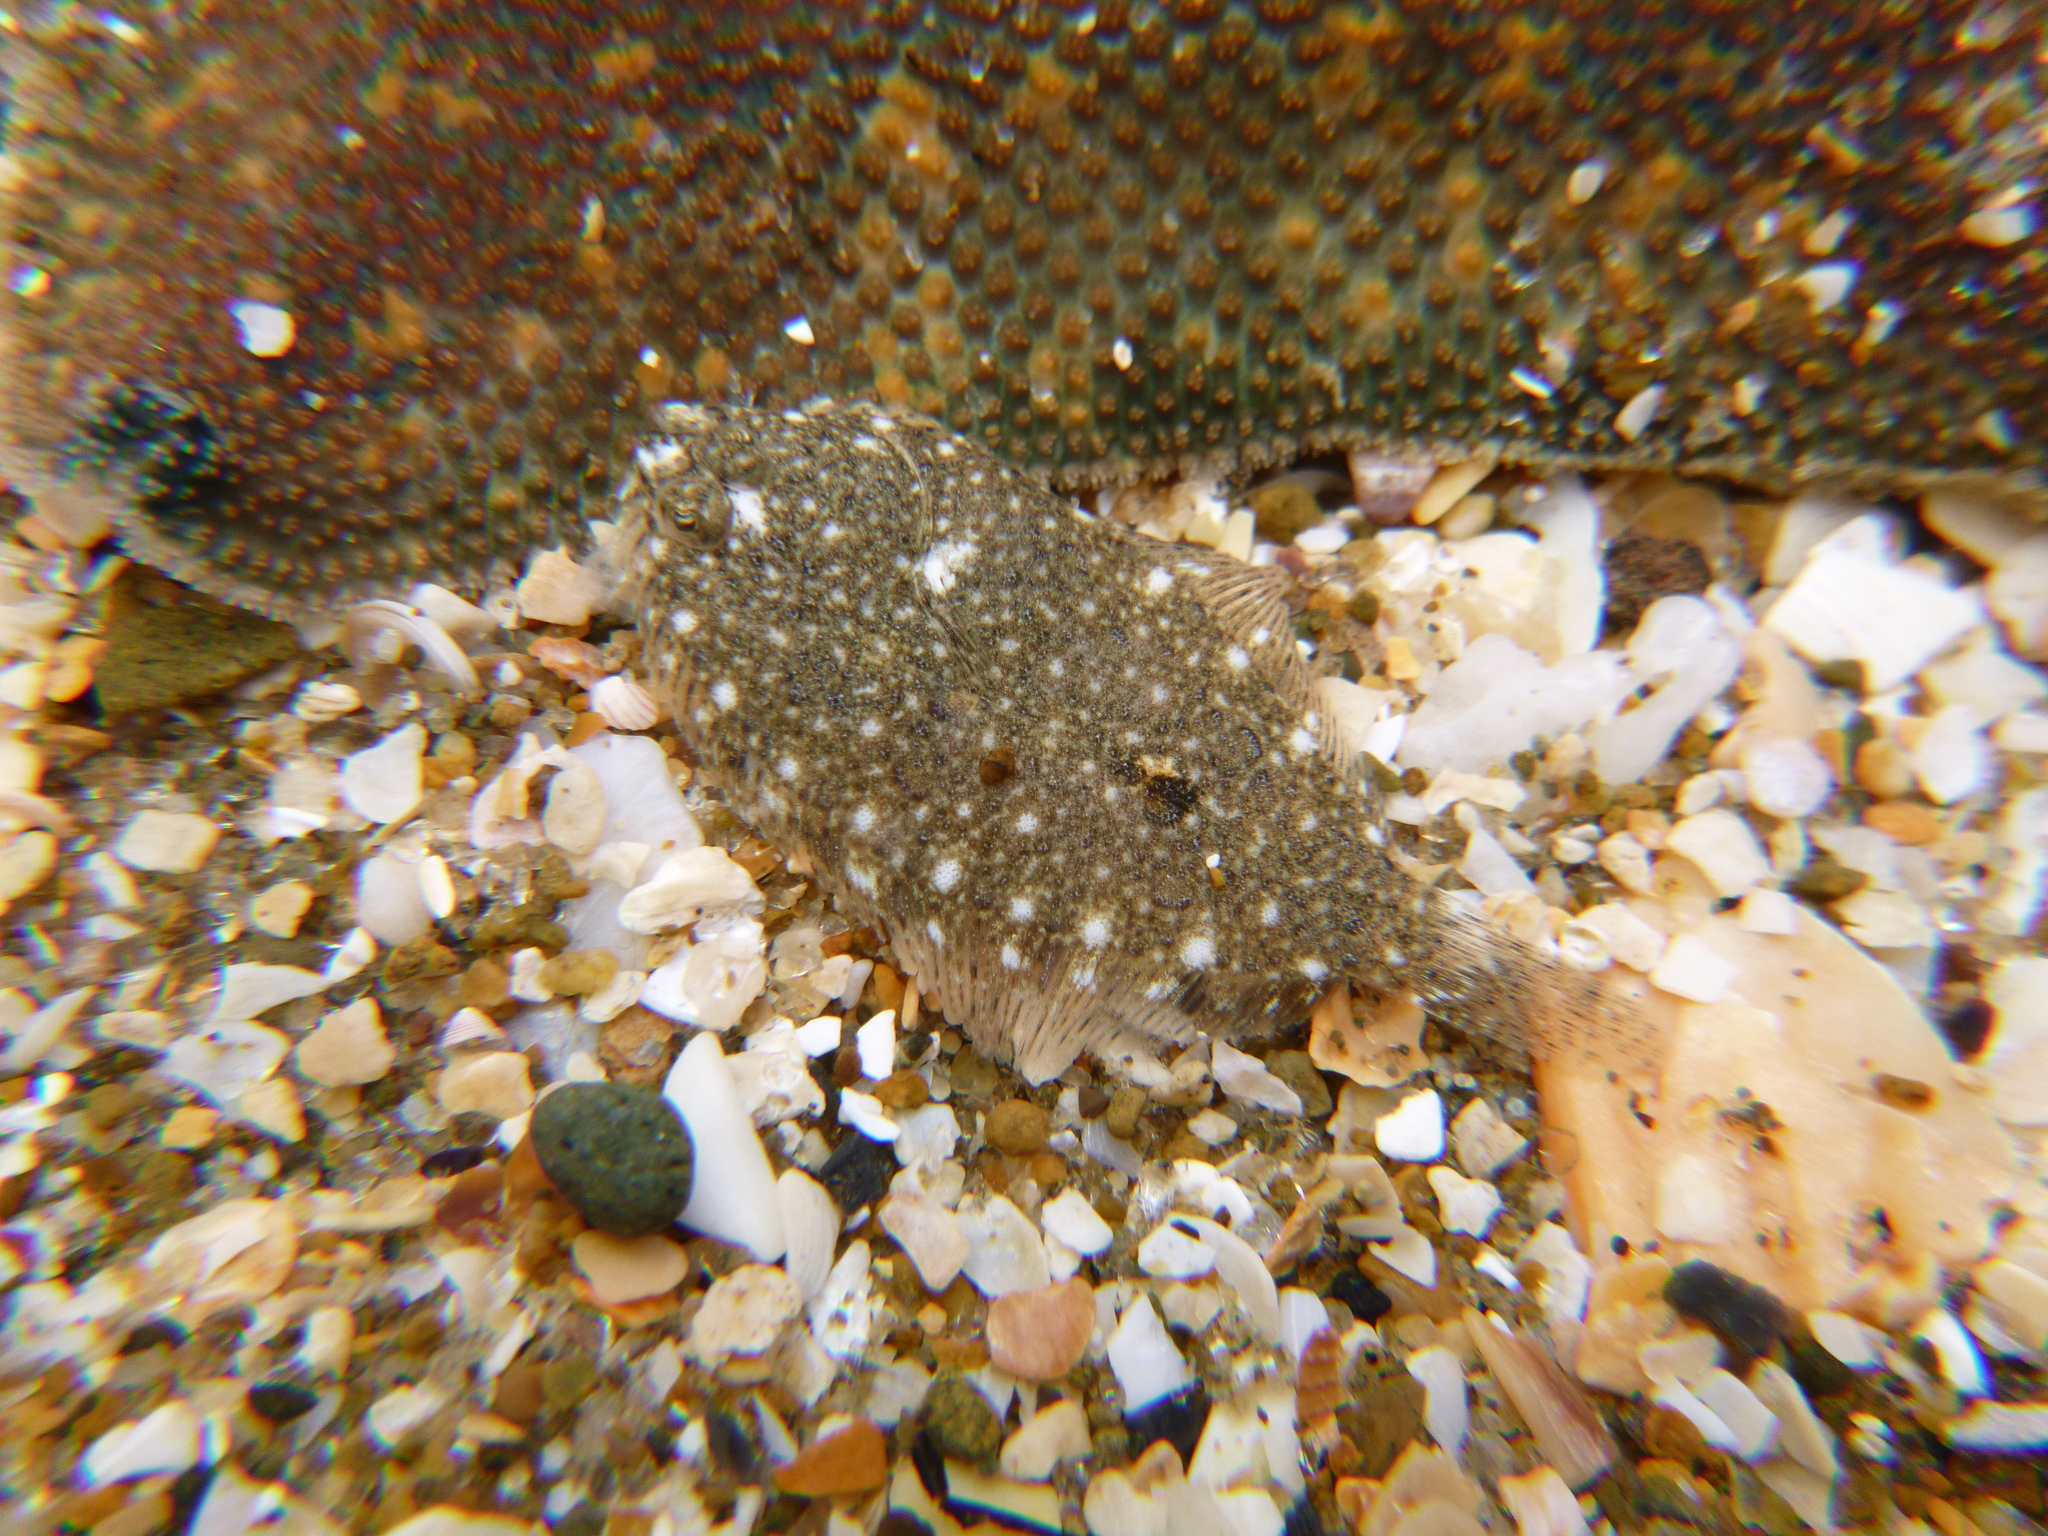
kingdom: Animalia
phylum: Chordata
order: Pleuronectiformes
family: Pleuronectidae
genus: Peltorhamphus
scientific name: Peltorhamphus latus
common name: Speckled sole
